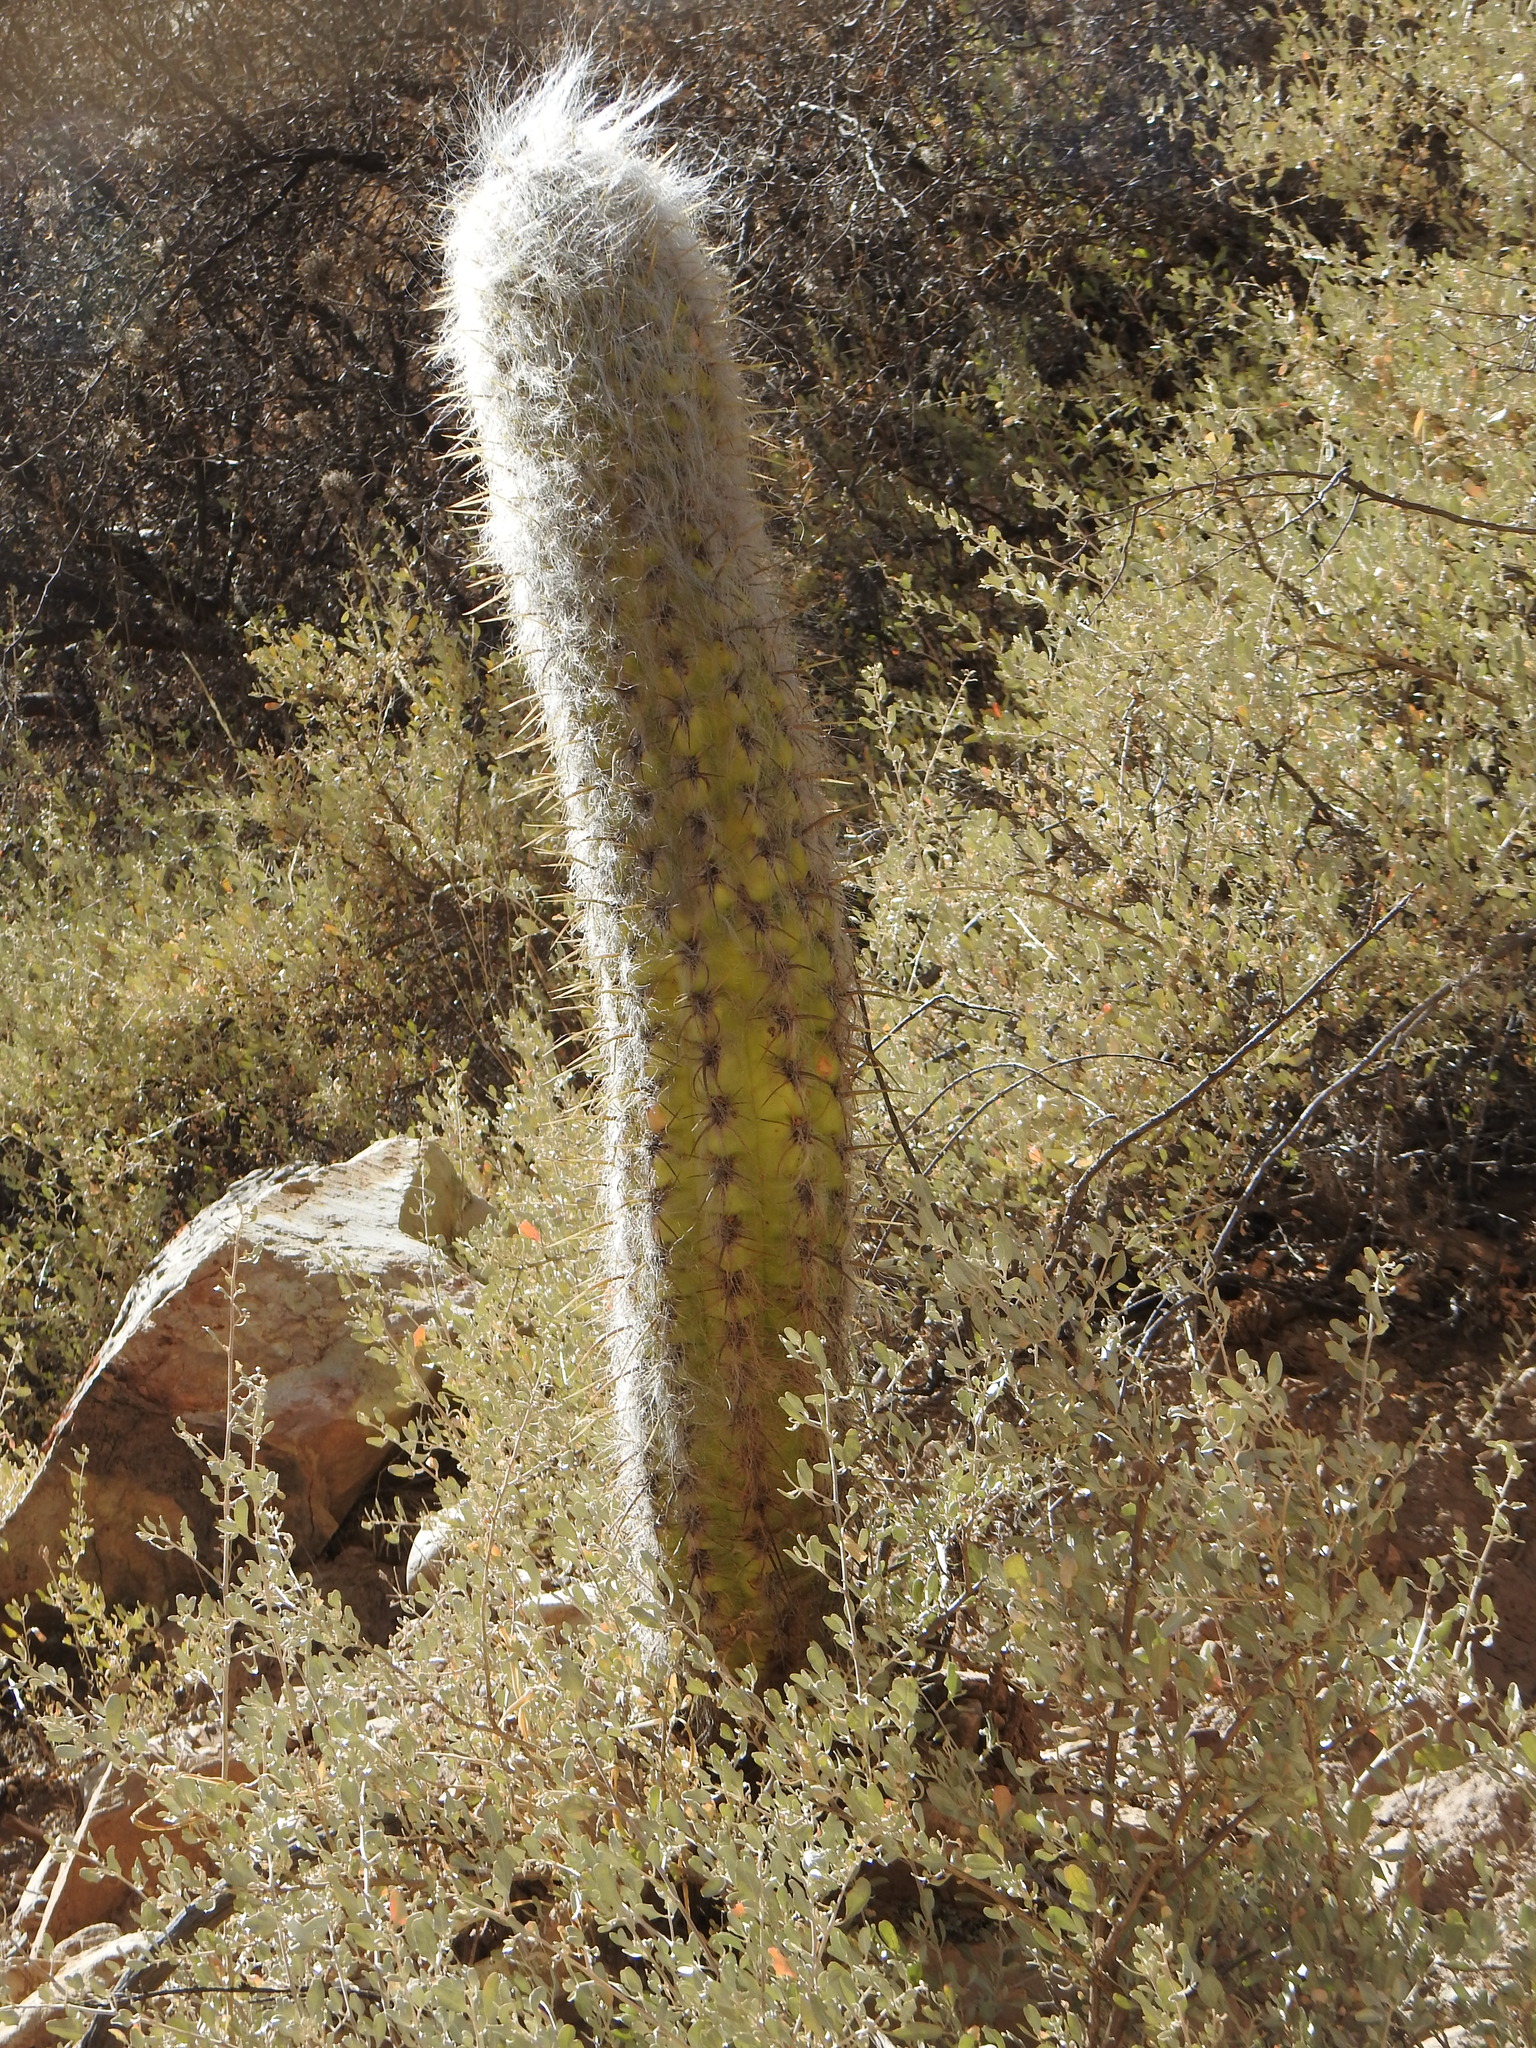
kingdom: Plantae
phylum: Tracheophyta
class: Magnoliopsida
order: Caryophyllales
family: Cactaceae
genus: Oreocereus
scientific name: Oreocereus celsianus
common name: Old-man-of-the-andes
